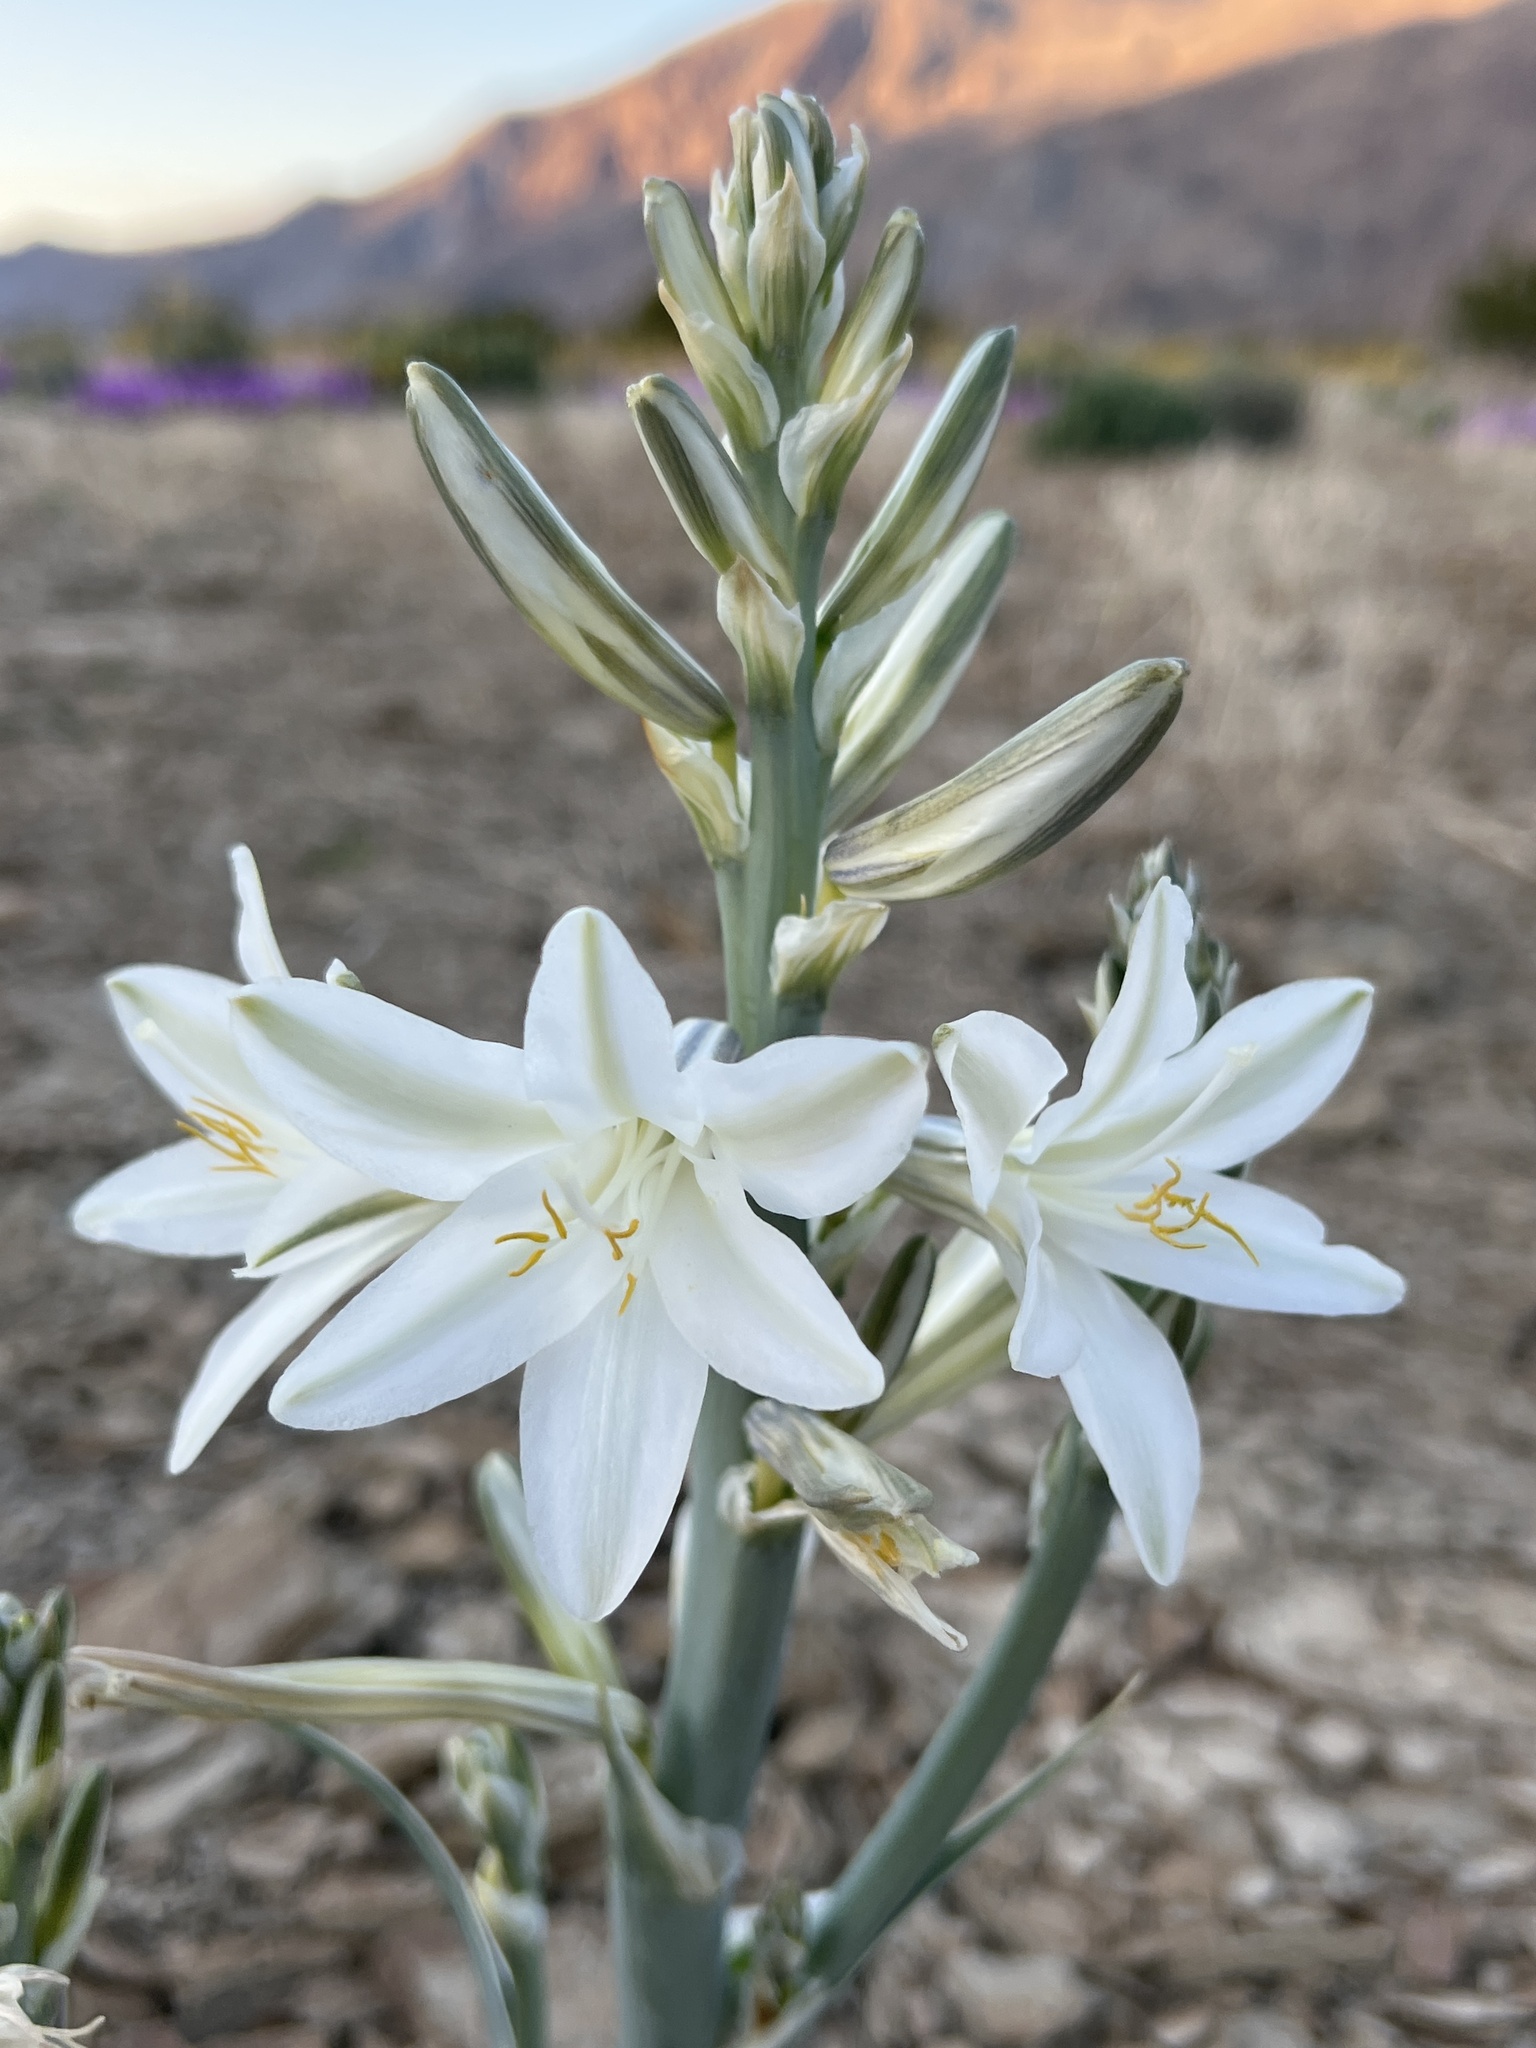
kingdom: Plantae
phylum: Tracheophyta
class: Liliopsida
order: Asparagales
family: Asparagaceae
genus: Hesperocallis
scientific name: Hesperocallis undulata
